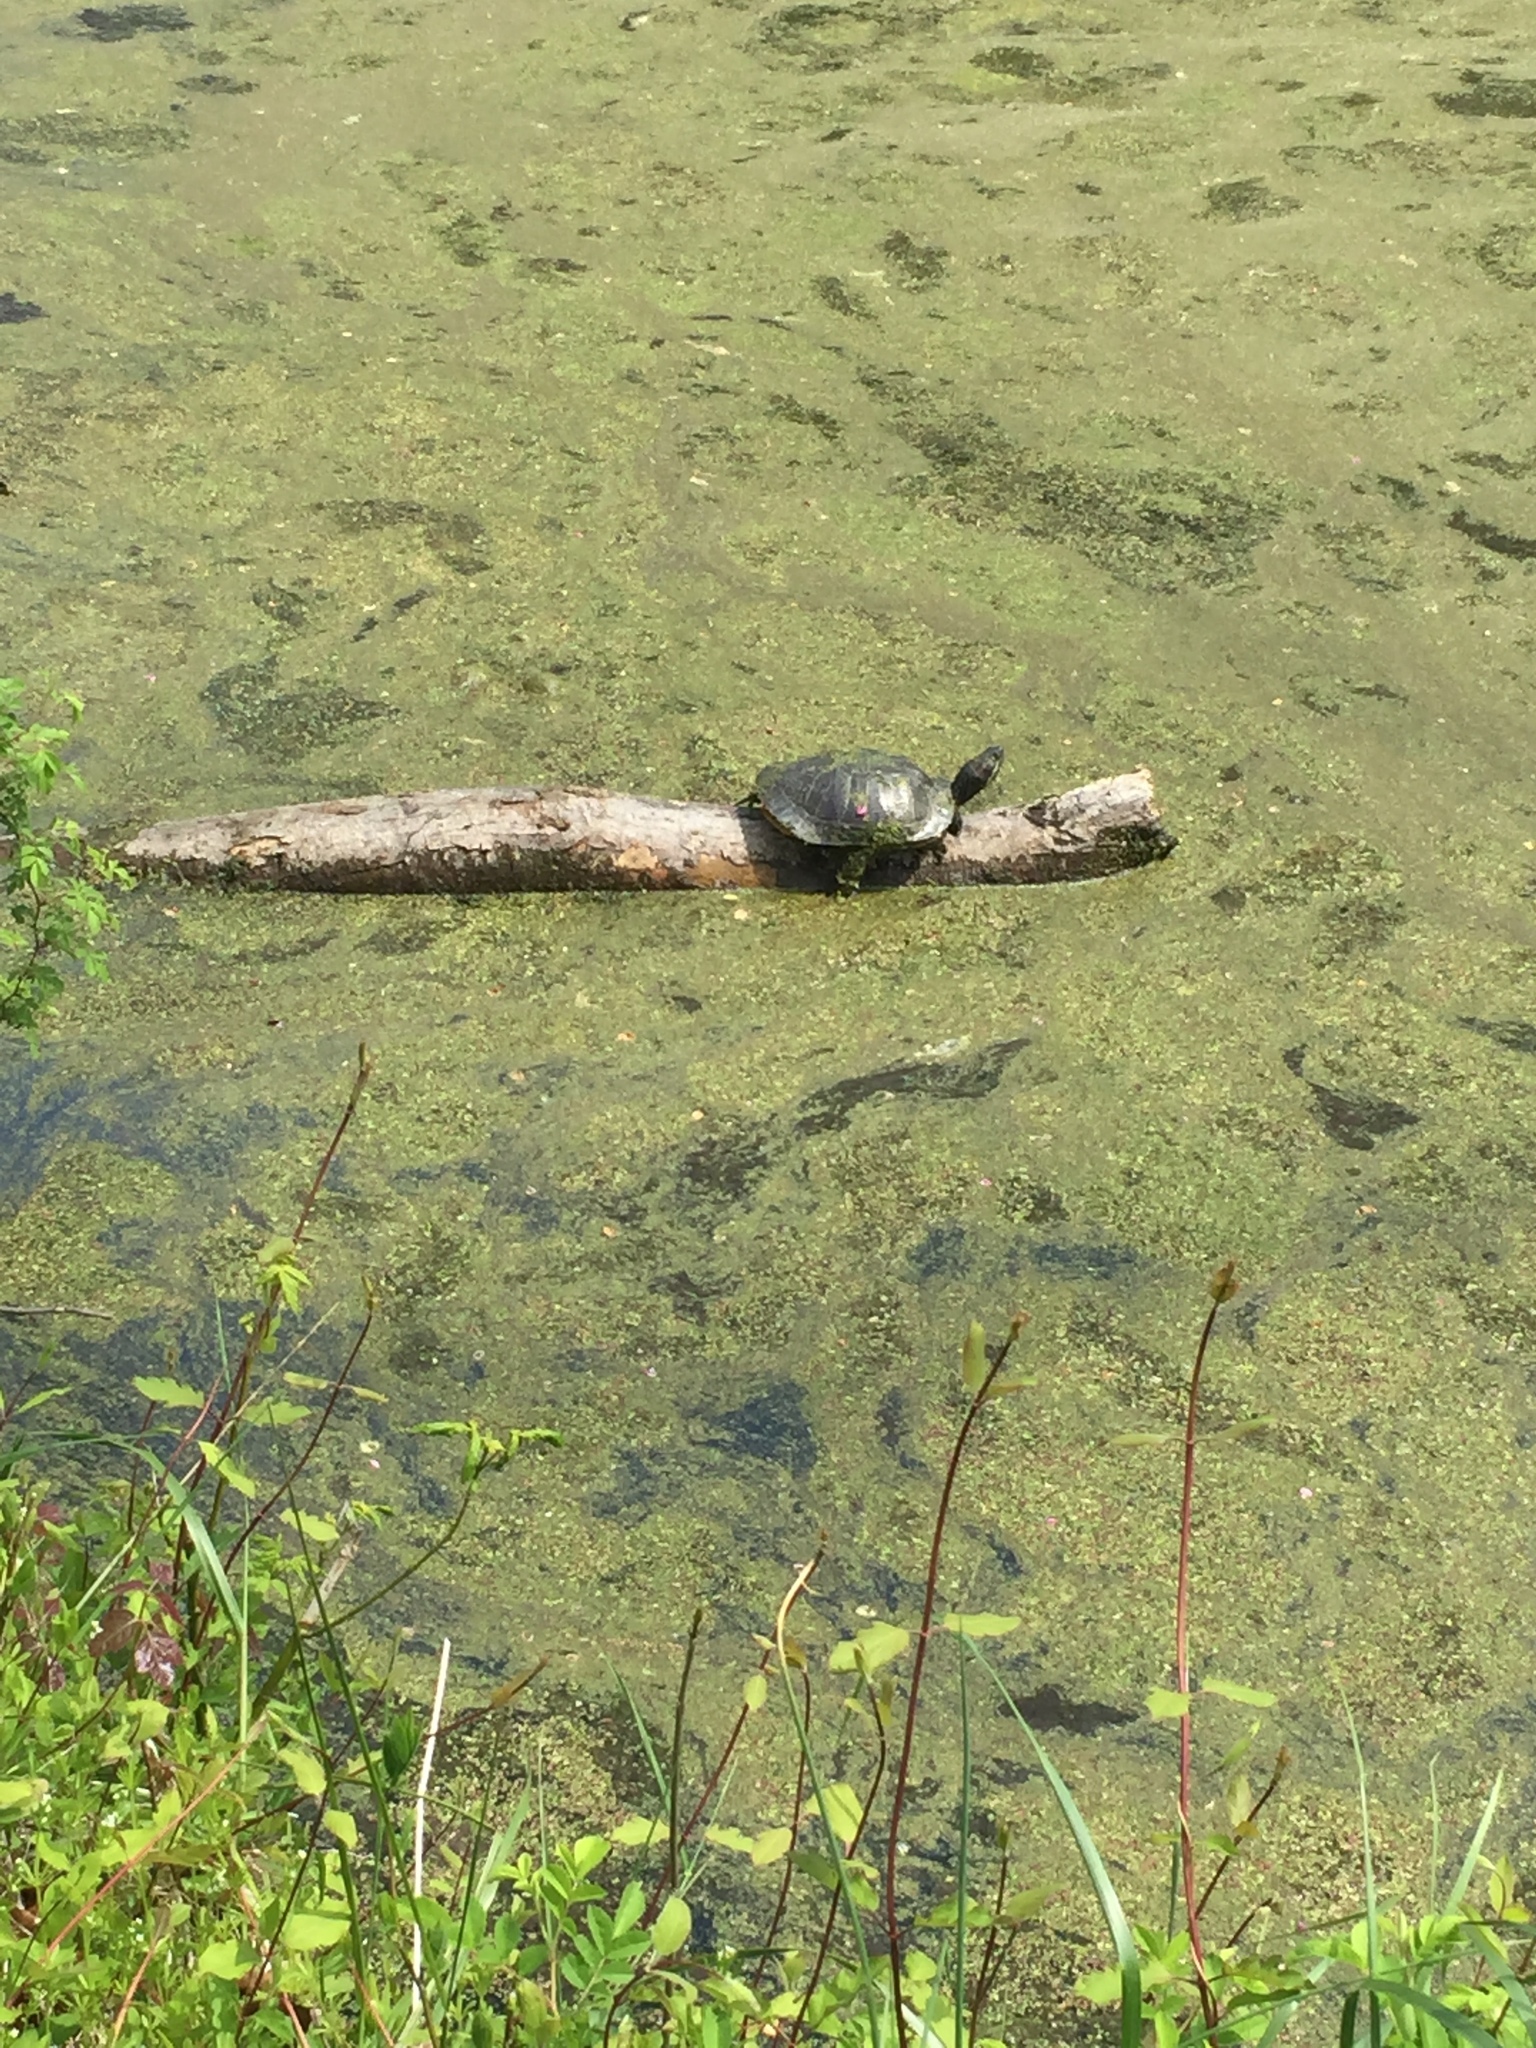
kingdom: Animalia
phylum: Chordata
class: Testudines
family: Emydidae
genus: Trachemys
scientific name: Trachemys scripta
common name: Slider
